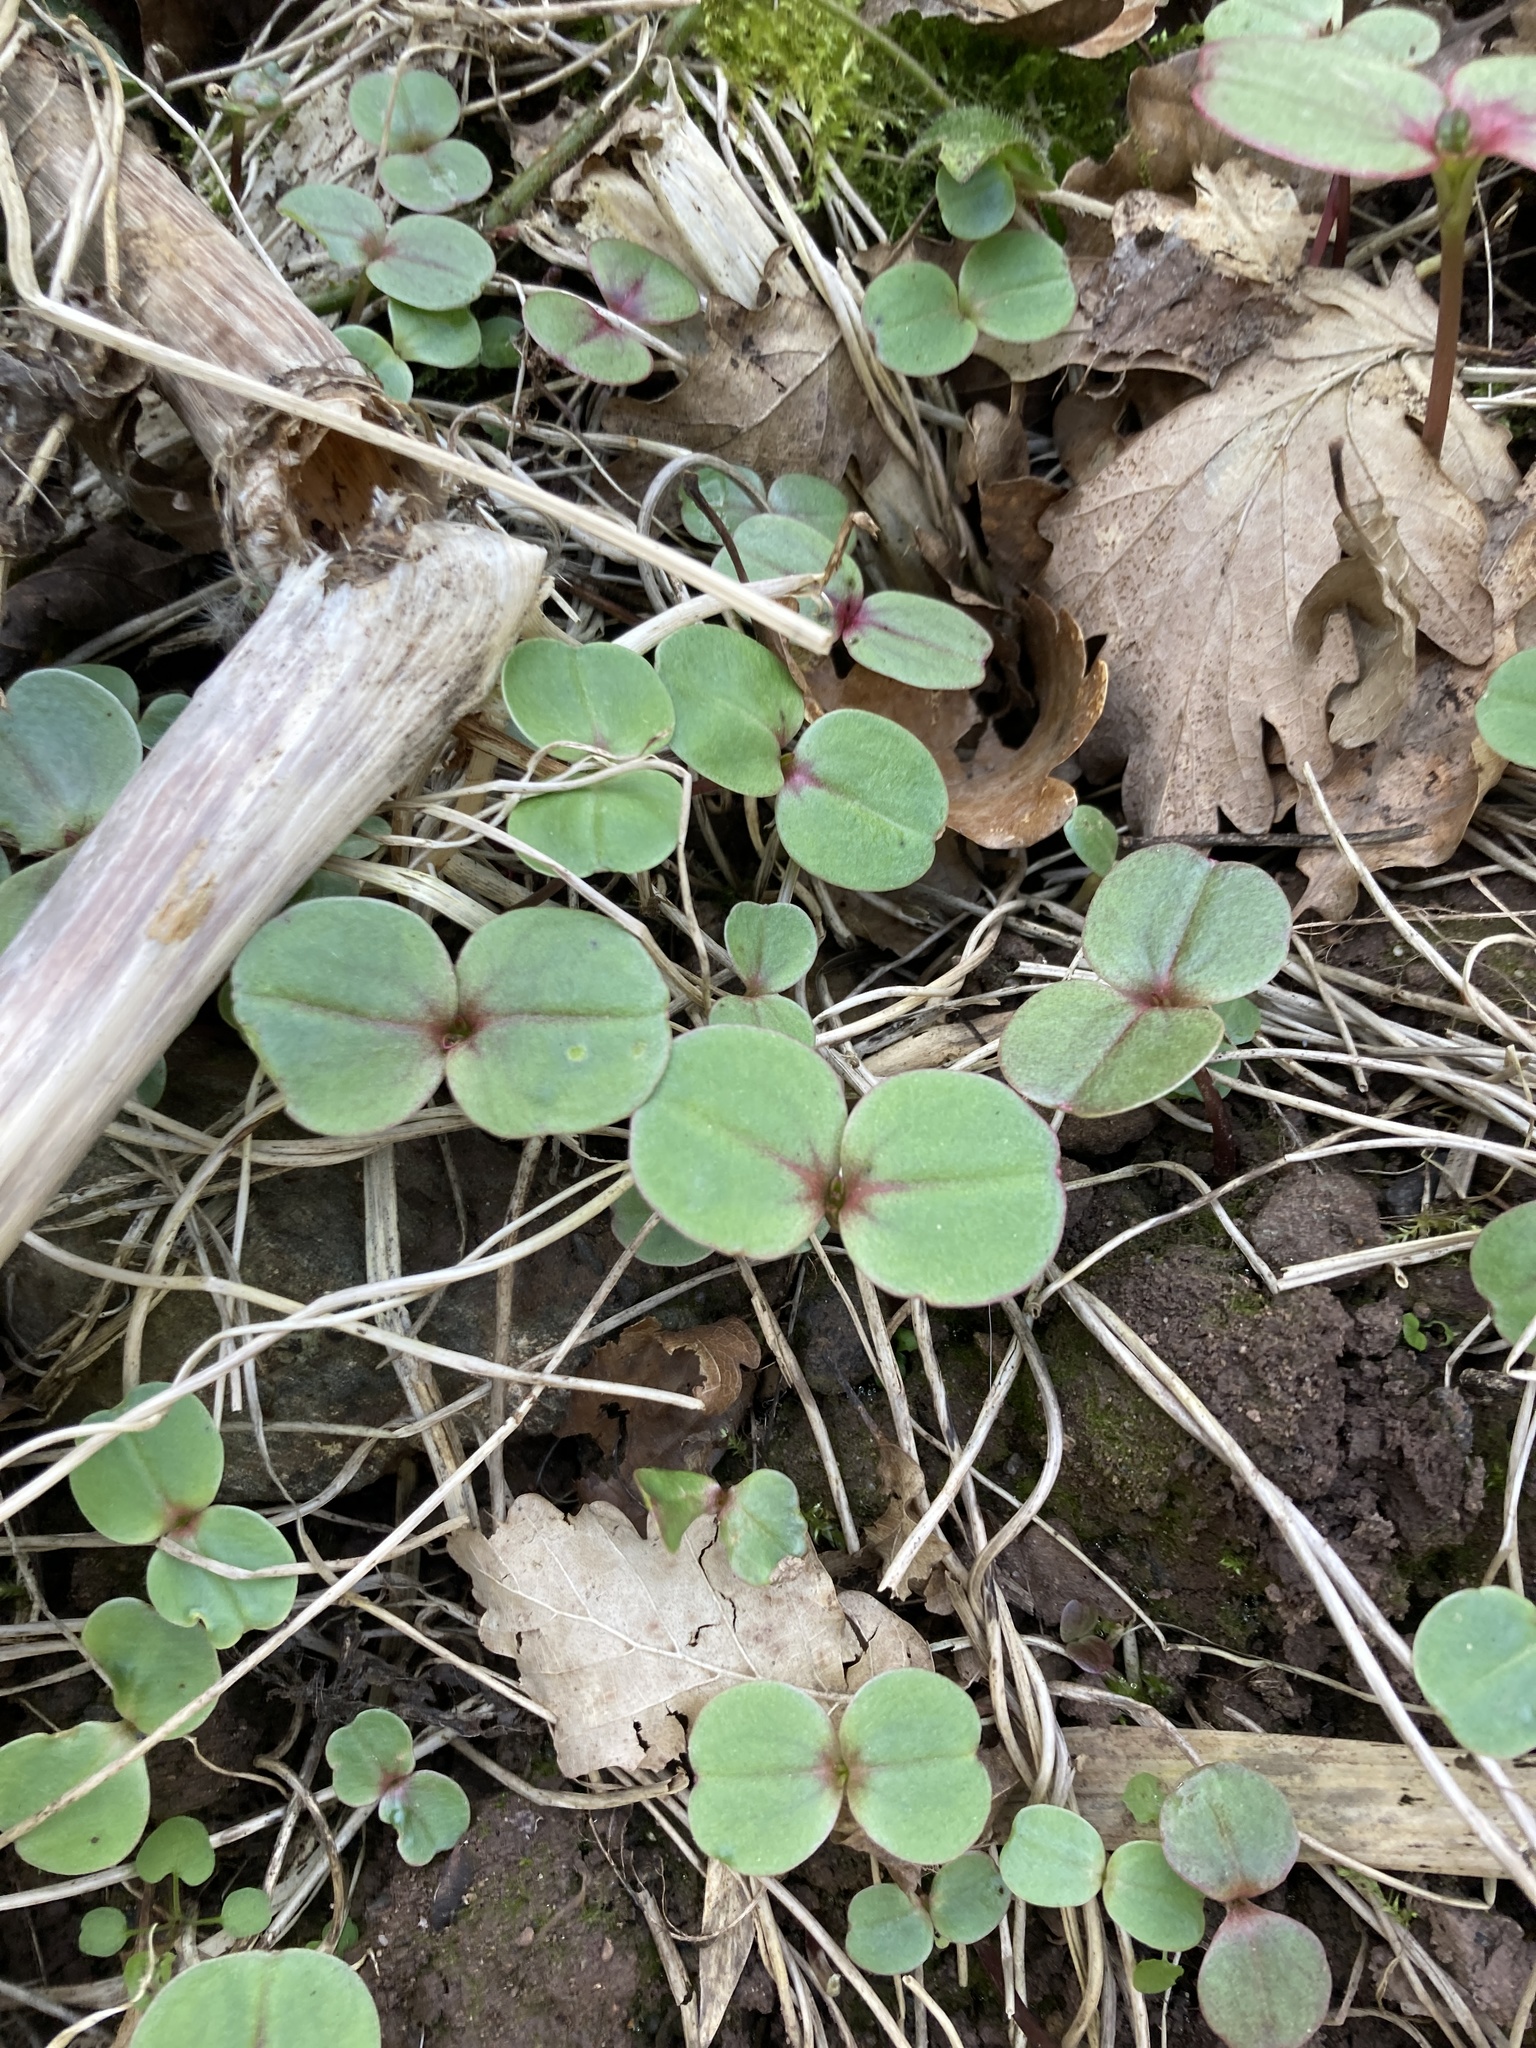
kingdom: Plantae
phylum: Tracheophyta
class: Magnoliopsida
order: Ericales
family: Balsaminaceae
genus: Impatiens
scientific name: Impatiens glandulifera
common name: Himalayan balsam
